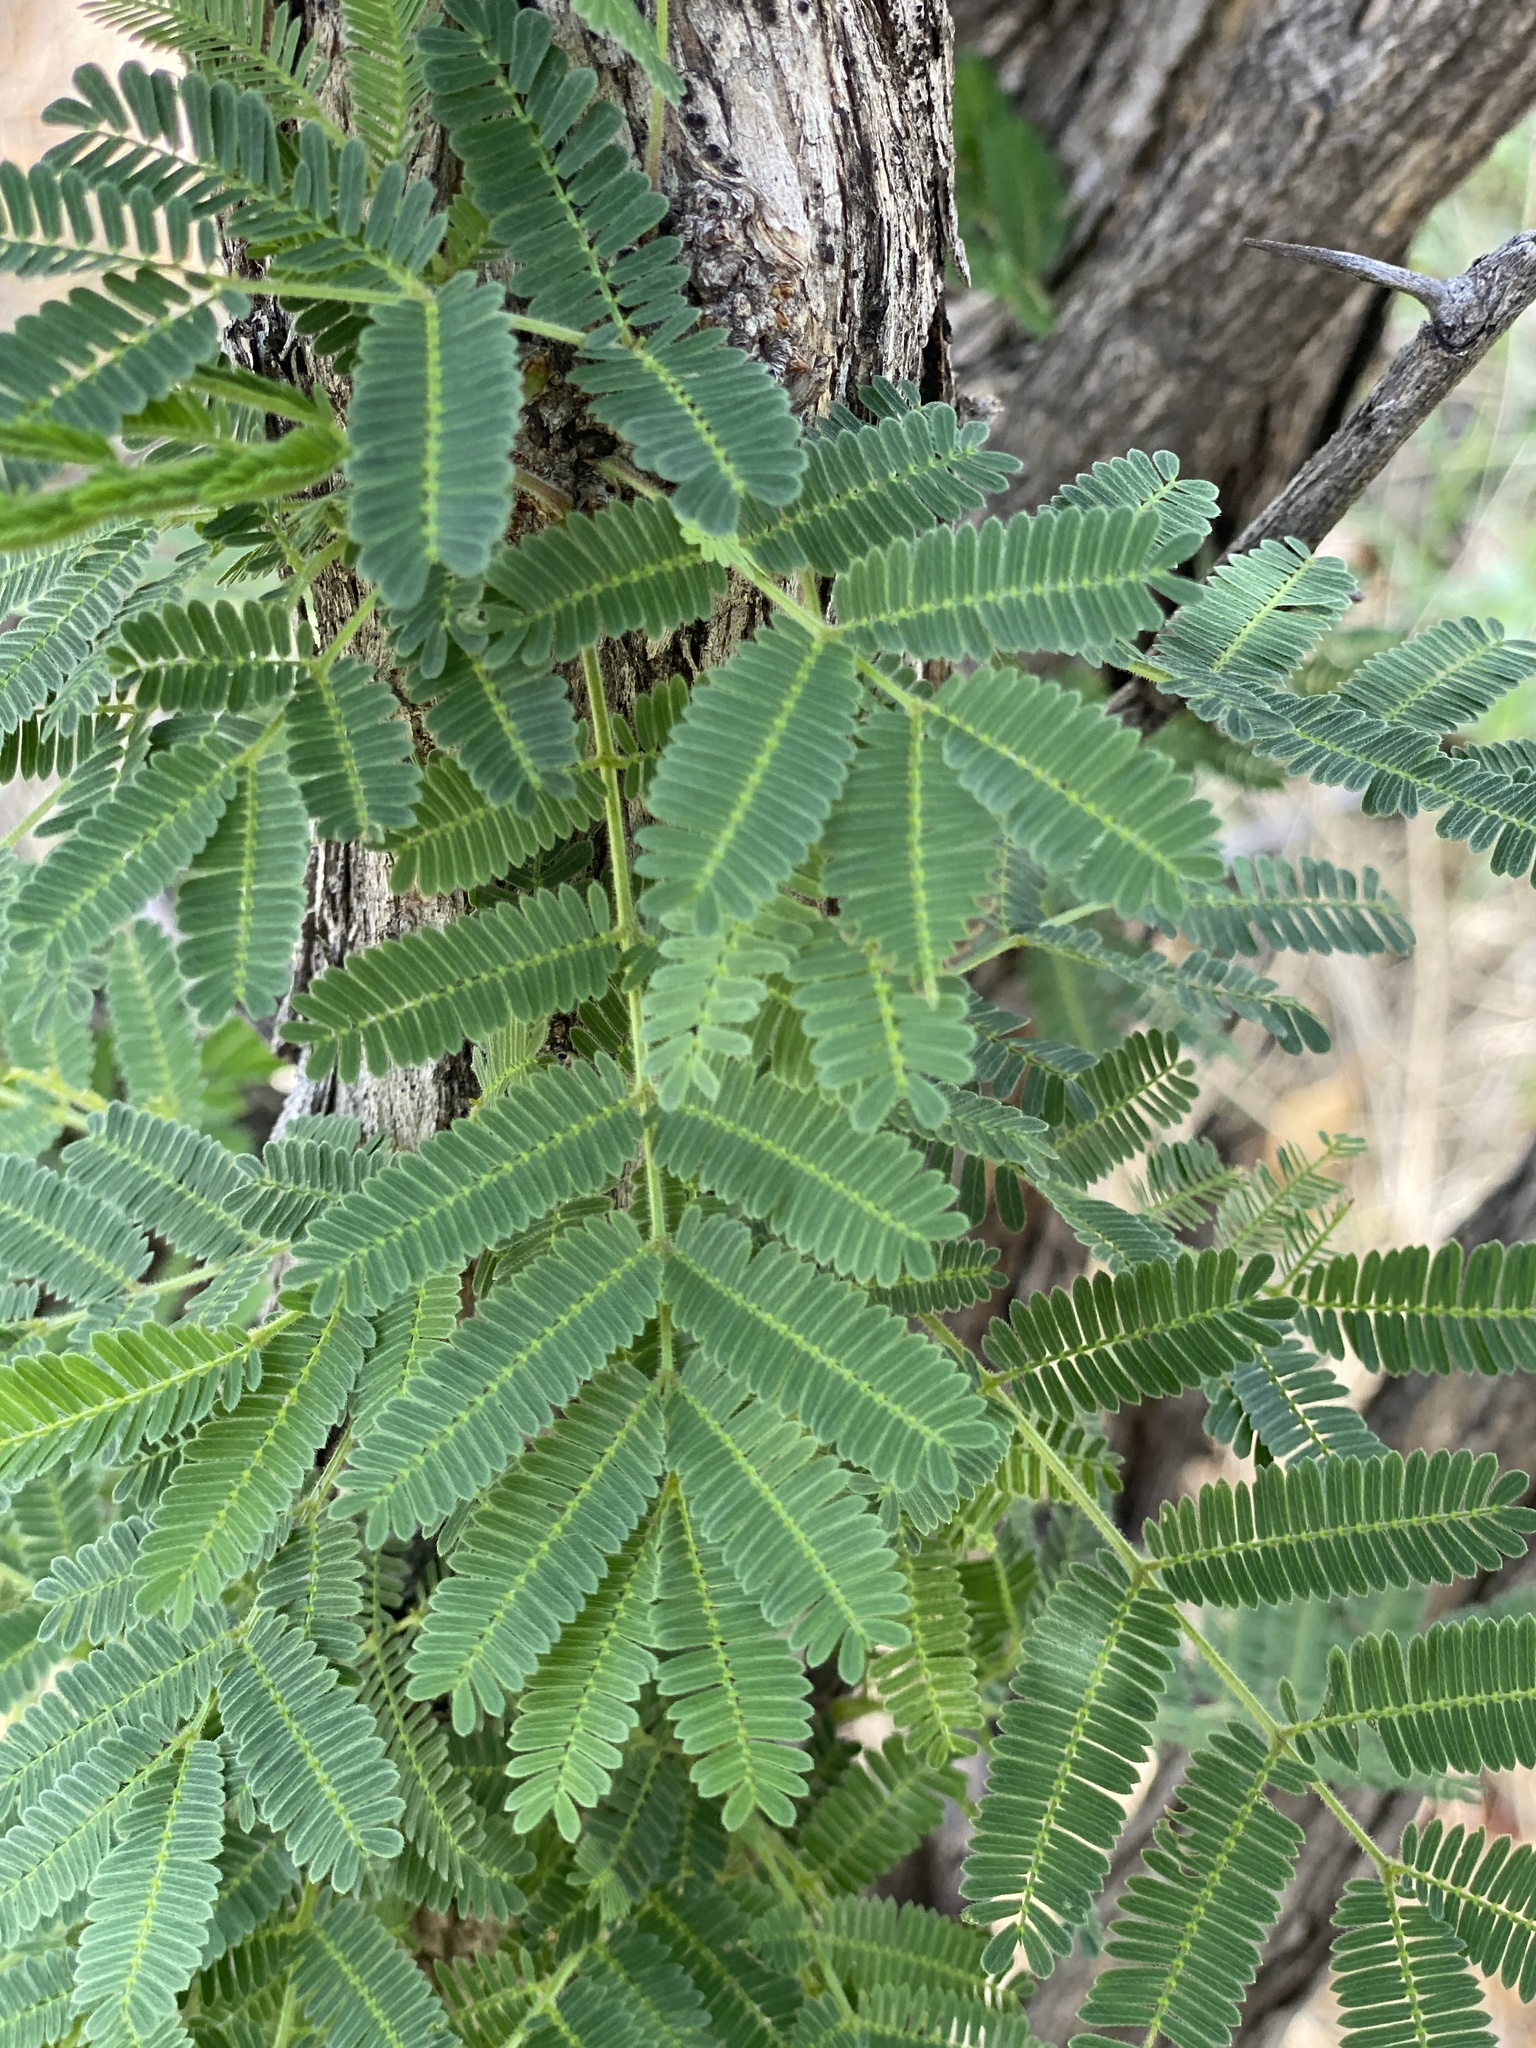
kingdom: Plantae
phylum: Tracheophyta
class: Magnoliopsida
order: Fabales
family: Fabaceae
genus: Dichrostachys
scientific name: Dichrostachys cinerea
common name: Sicklebush
